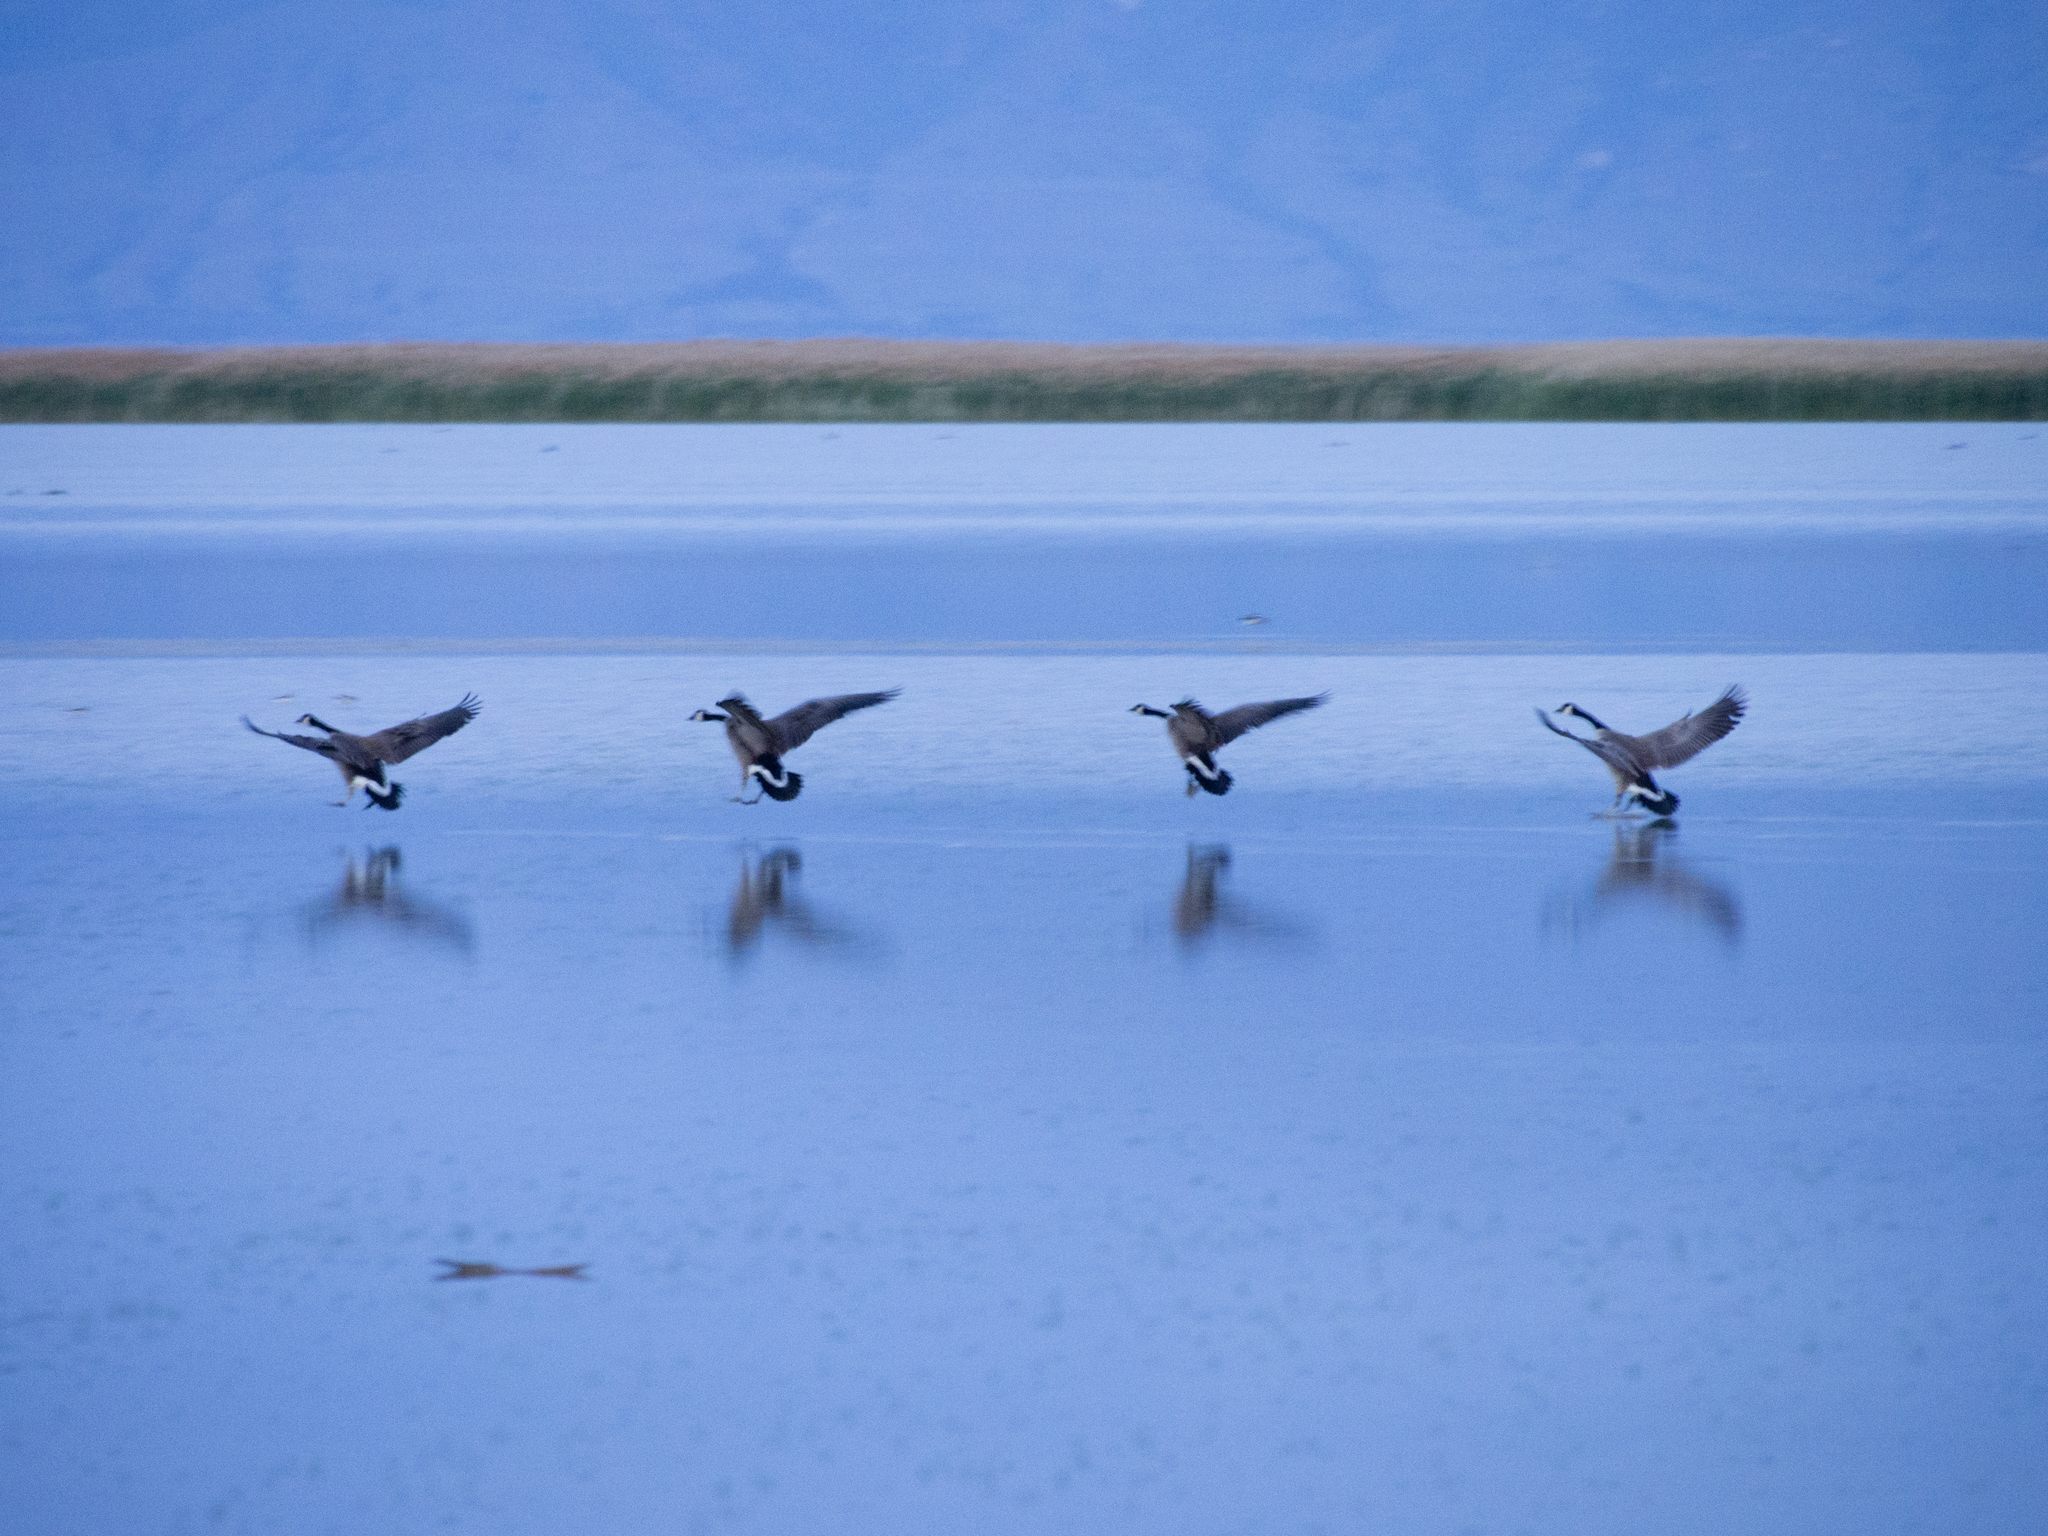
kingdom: Animalia
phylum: Chordata
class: Aves
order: Anseriformes
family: Anatidae
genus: Branta
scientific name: Branta canadensis
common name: Canada goose
